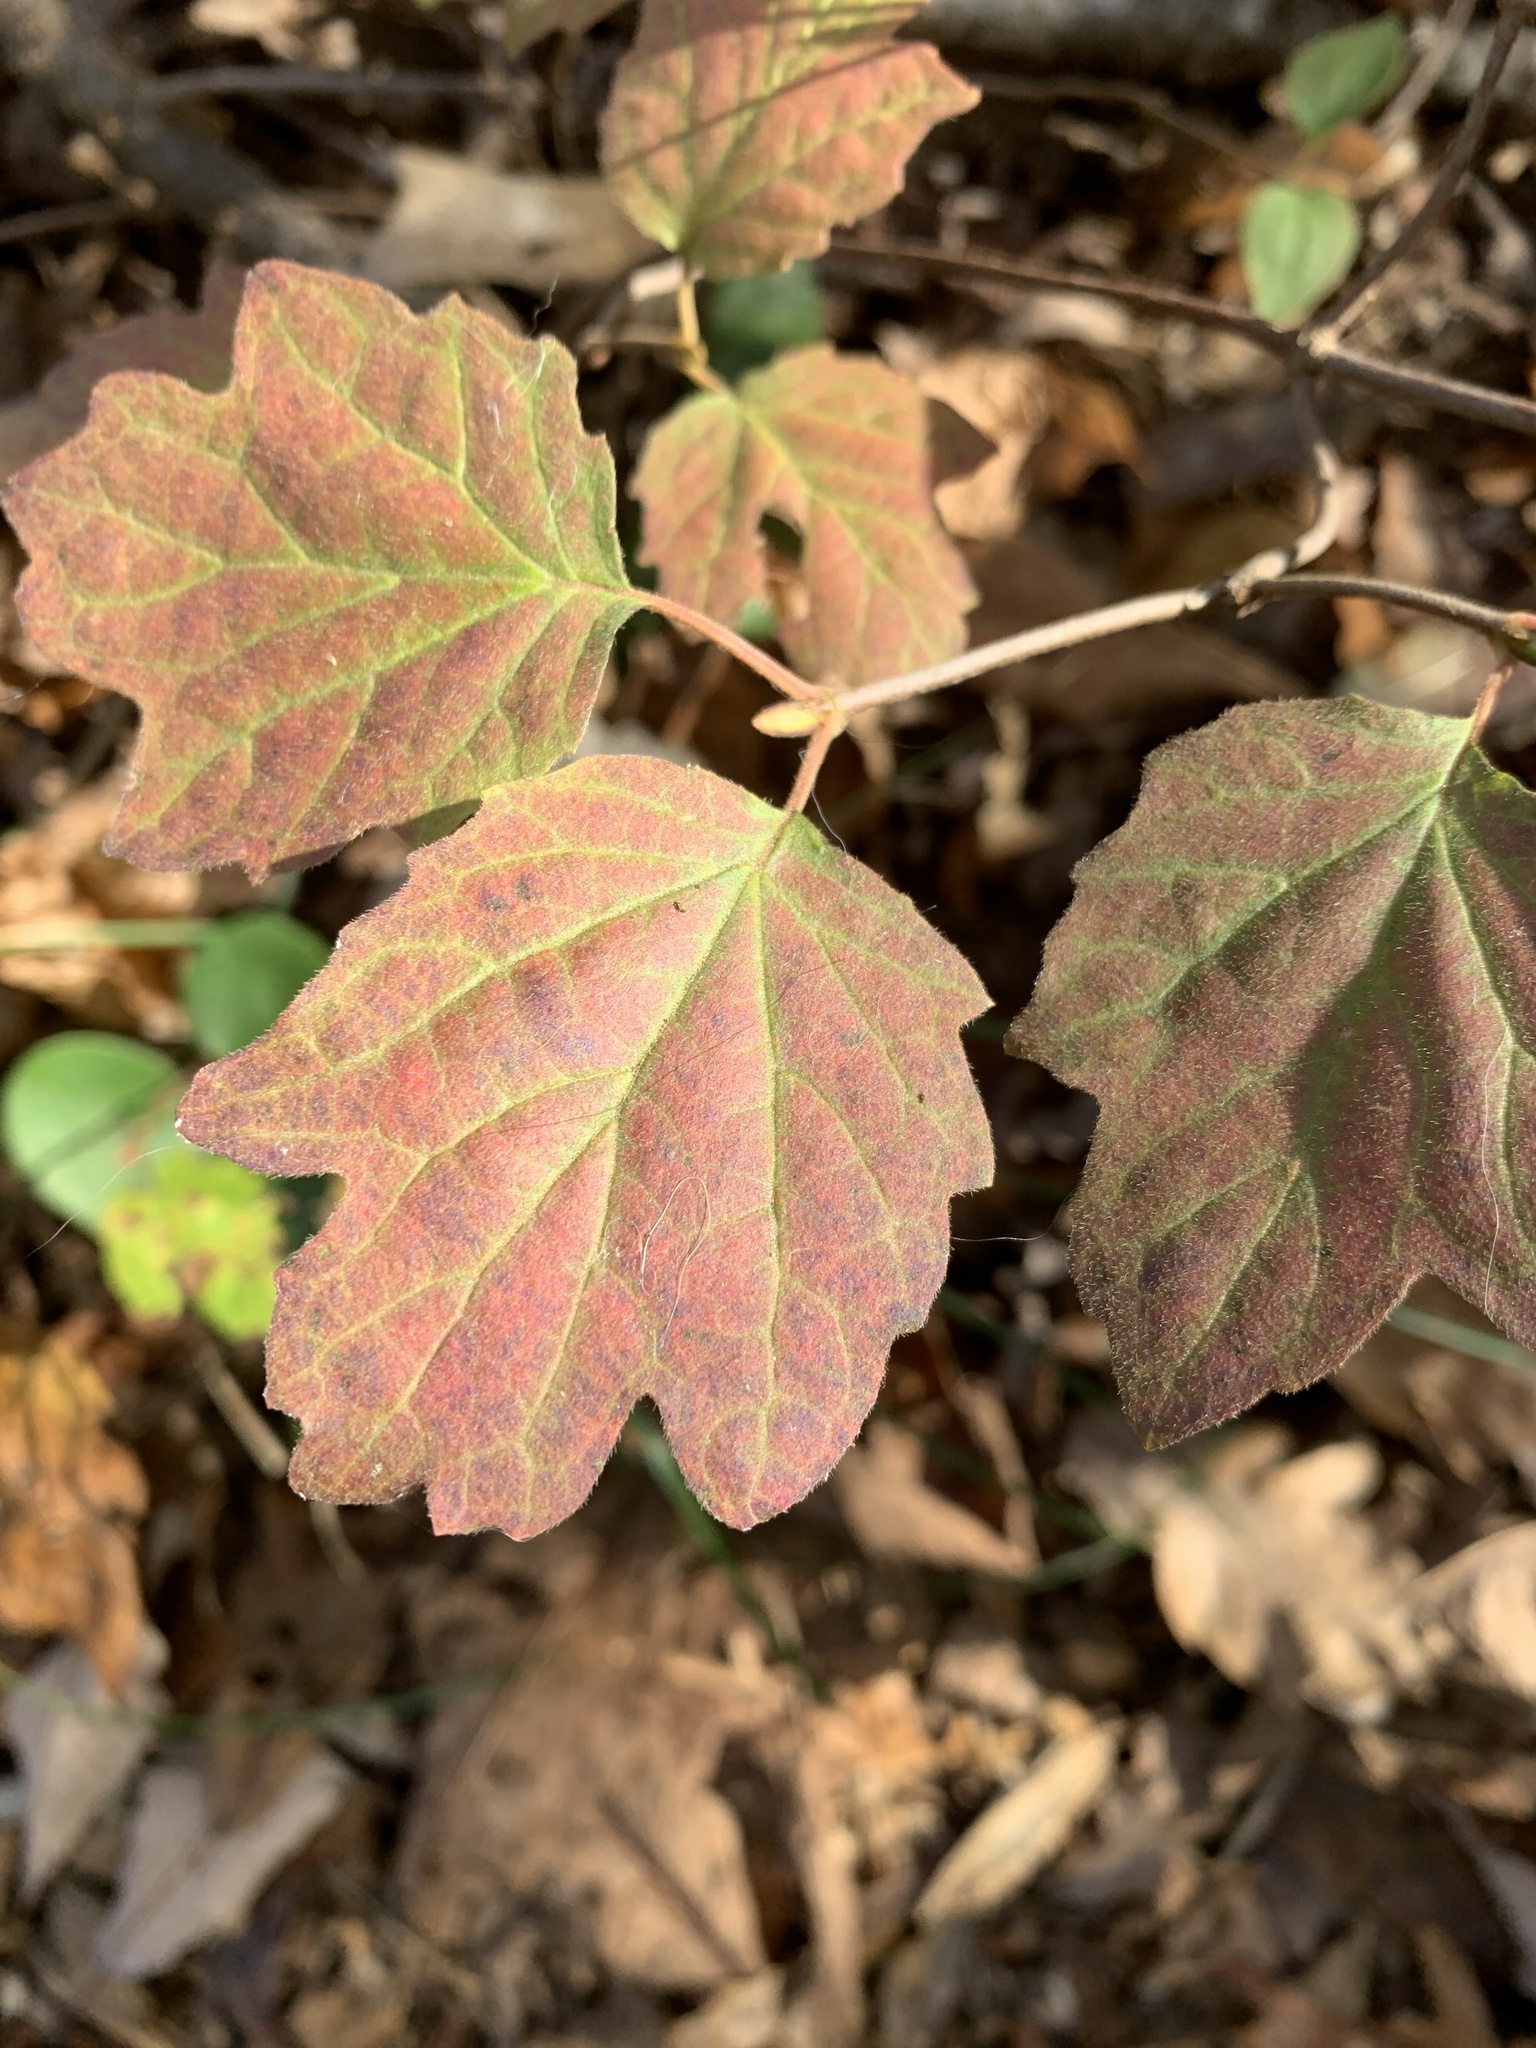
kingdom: Plantae
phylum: Tracheophyta
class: Magnoliopsida
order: Dipsacales
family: Viburnaceae
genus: Viburnum
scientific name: Viburnum acerifolium
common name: Dockmackie
